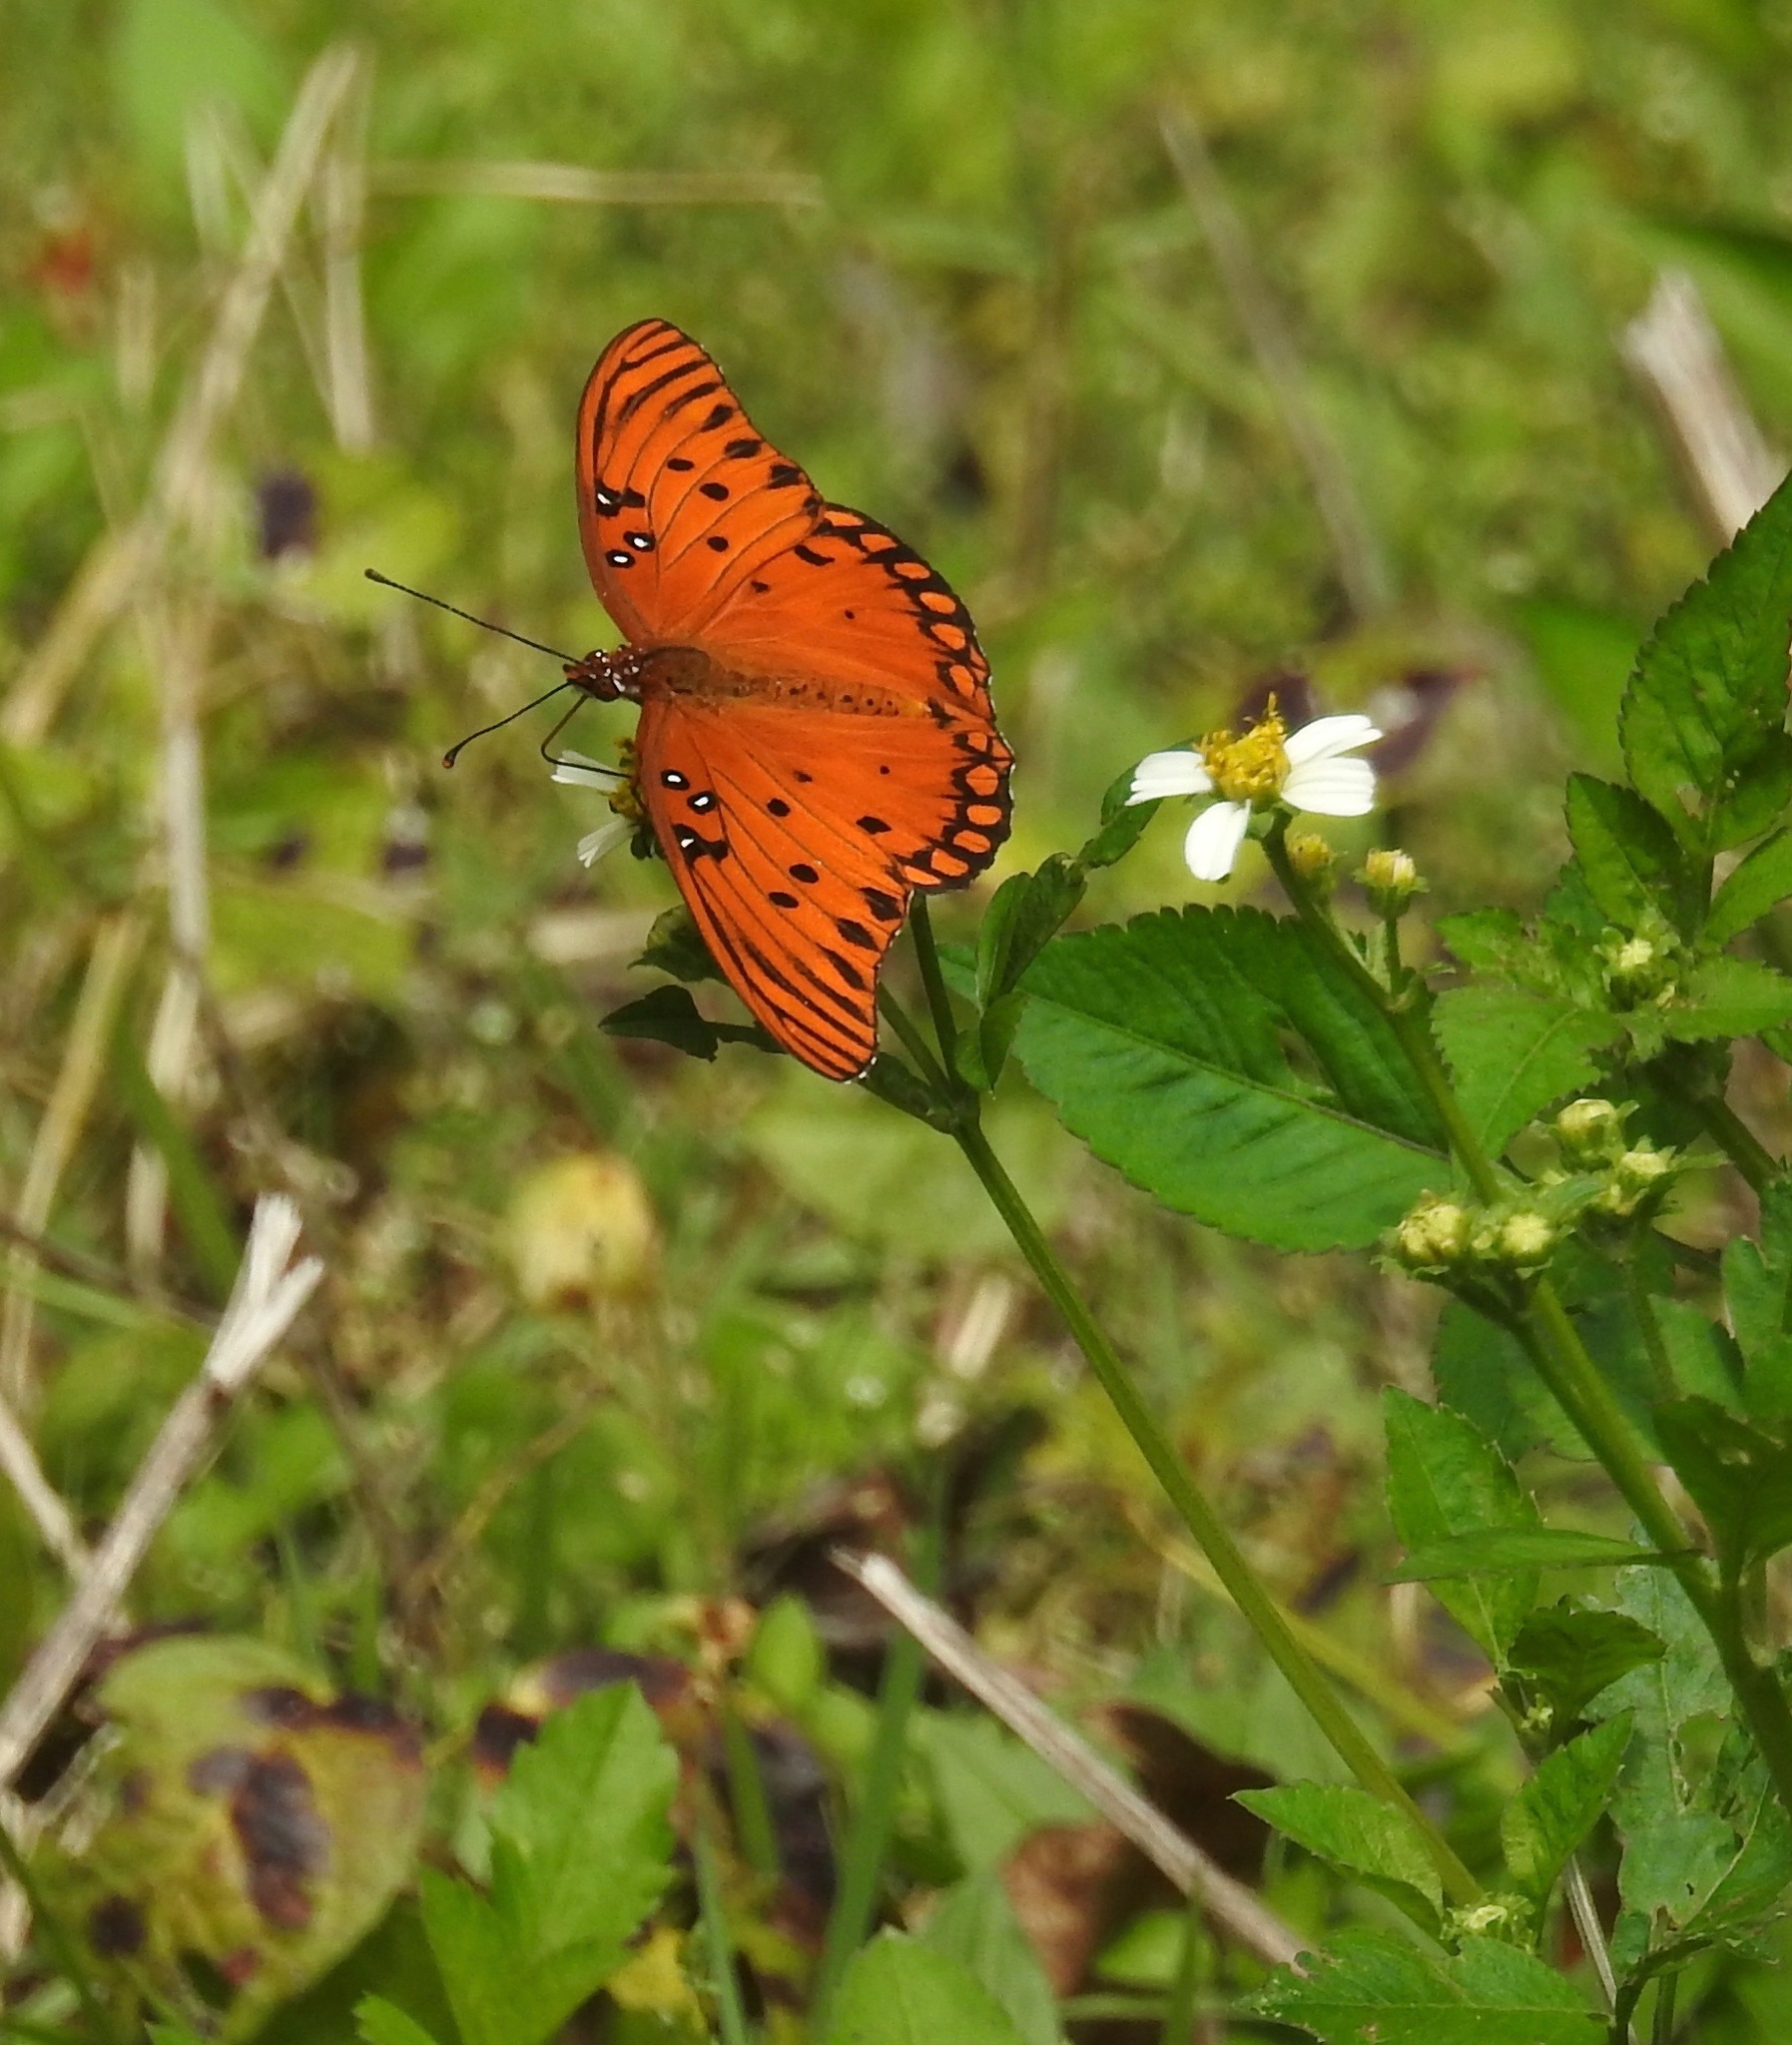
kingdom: Animalia
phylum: Arthropoda
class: Insecta
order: Lepidoptera
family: Nymphalidae
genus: Dione
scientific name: Dione vanillae
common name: Gulf fritillary
